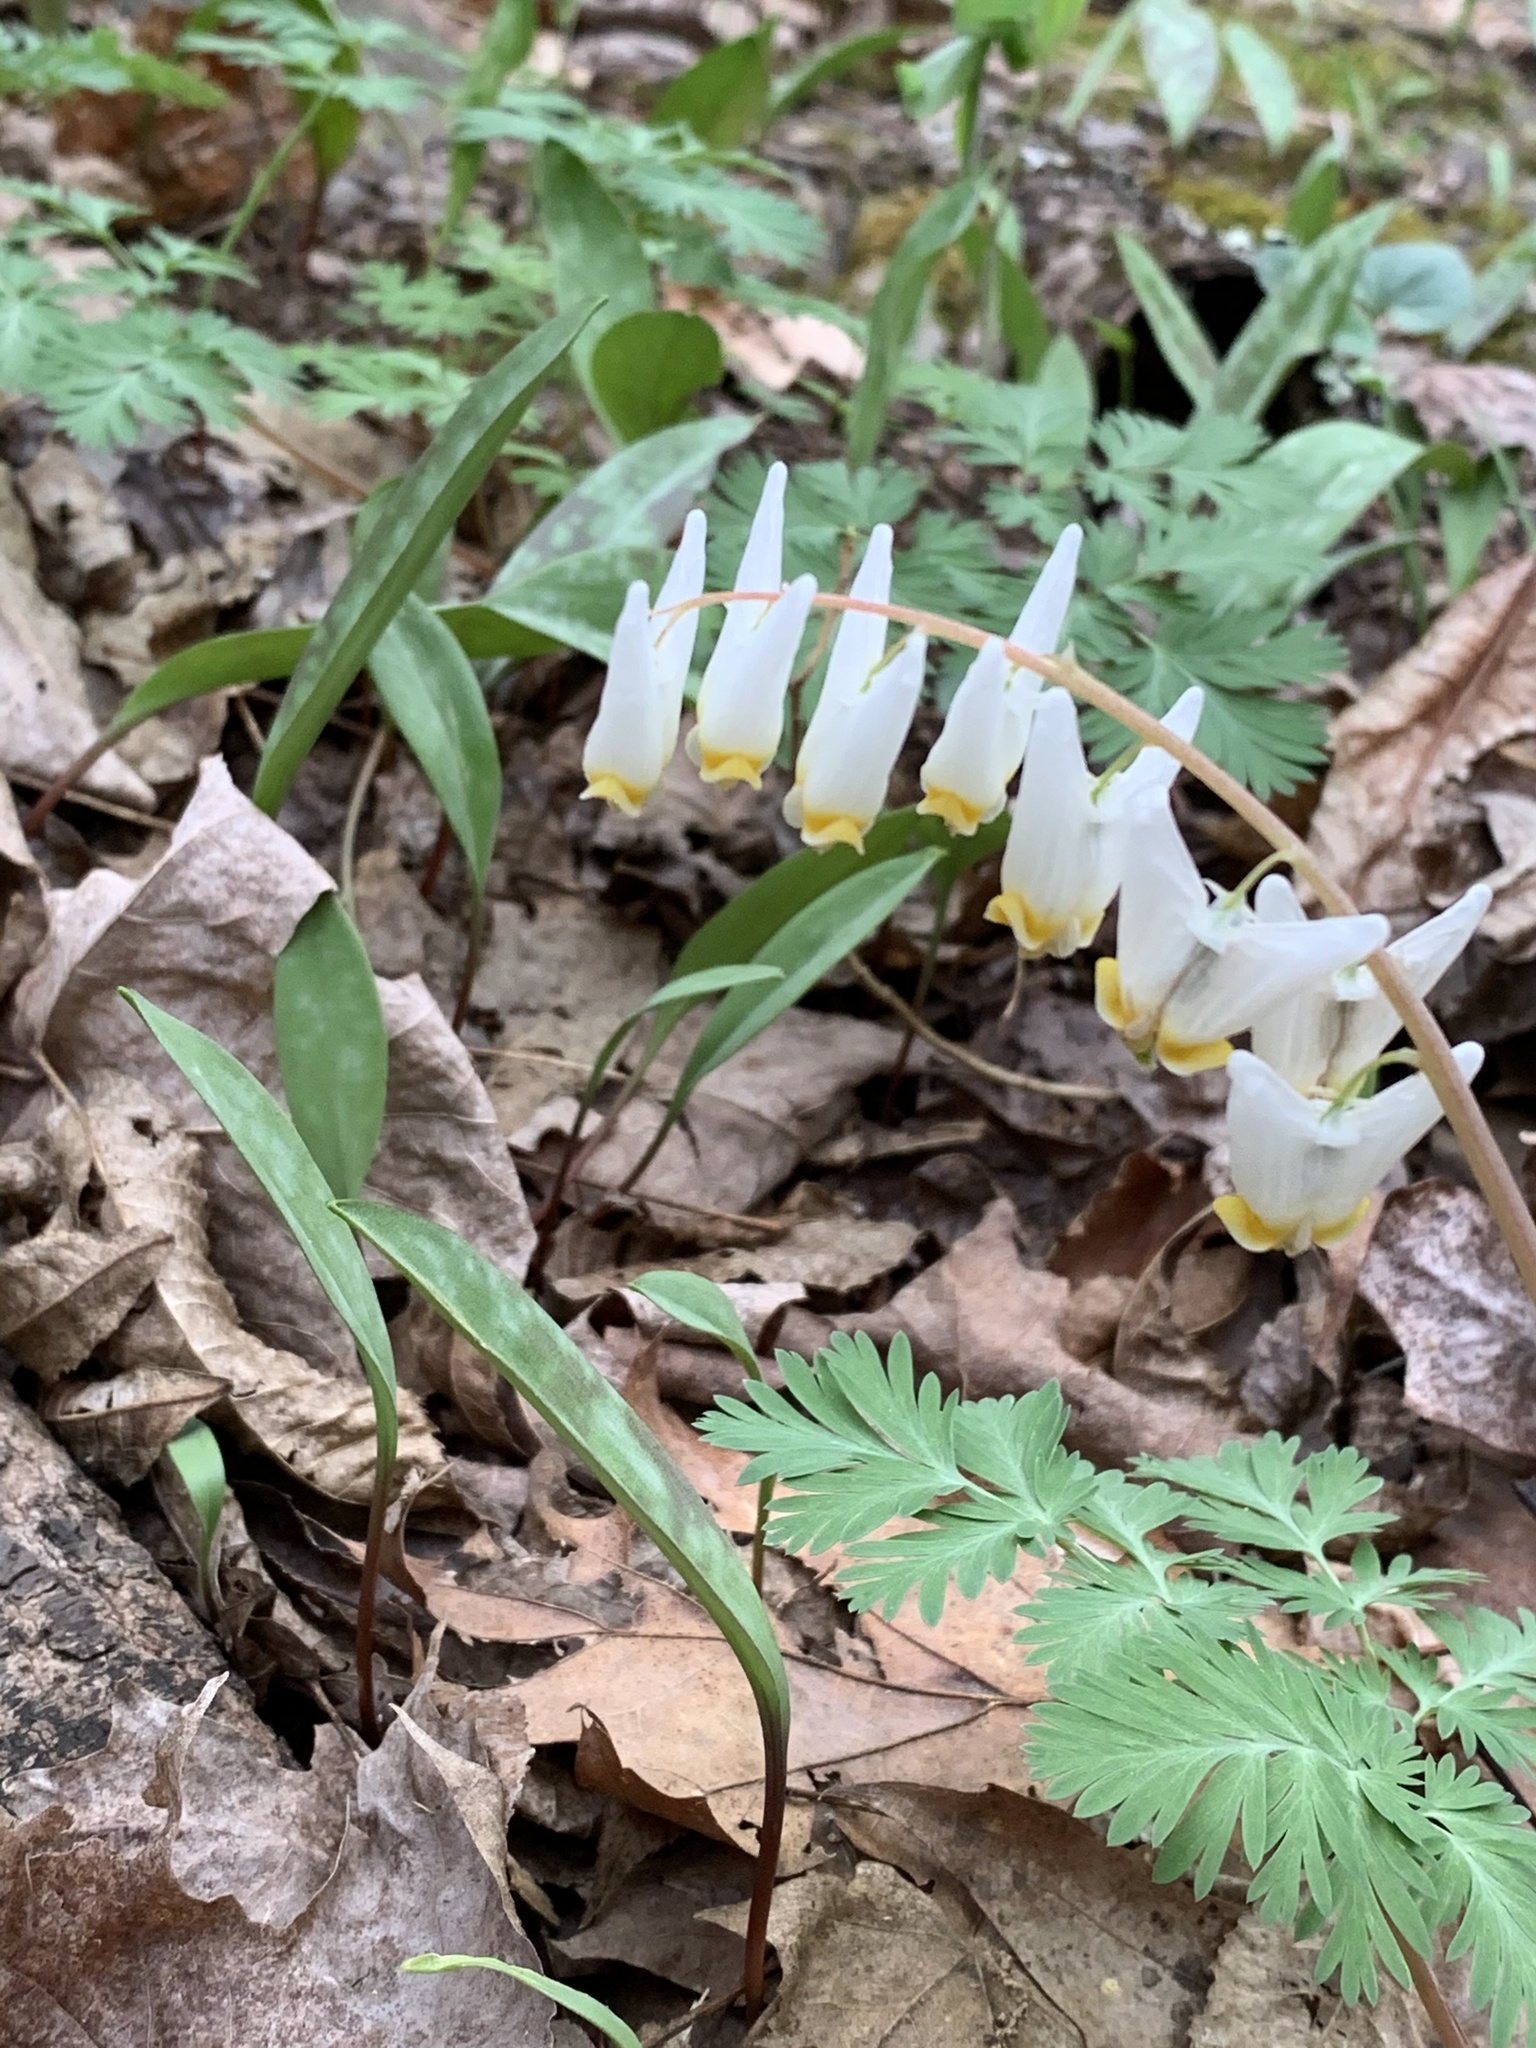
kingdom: Plantae
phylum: Tracheophyta
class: Magnoliopsida
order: Ranunculales
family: Papaveraceae
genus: Dicentra
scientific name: Dicentra cucullaria
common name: Dutchman's breeches
